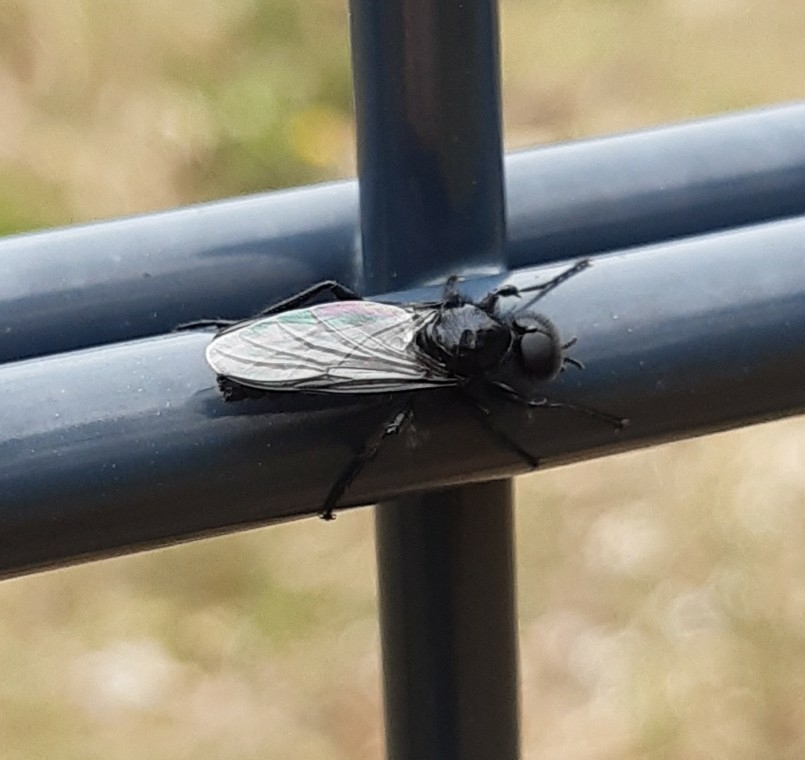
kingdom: Animalia
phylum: Arthropoda
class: Insecta
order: Diptera
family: Bibionidae
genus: Bibio
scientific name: Bibio marci
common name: St marks fly
